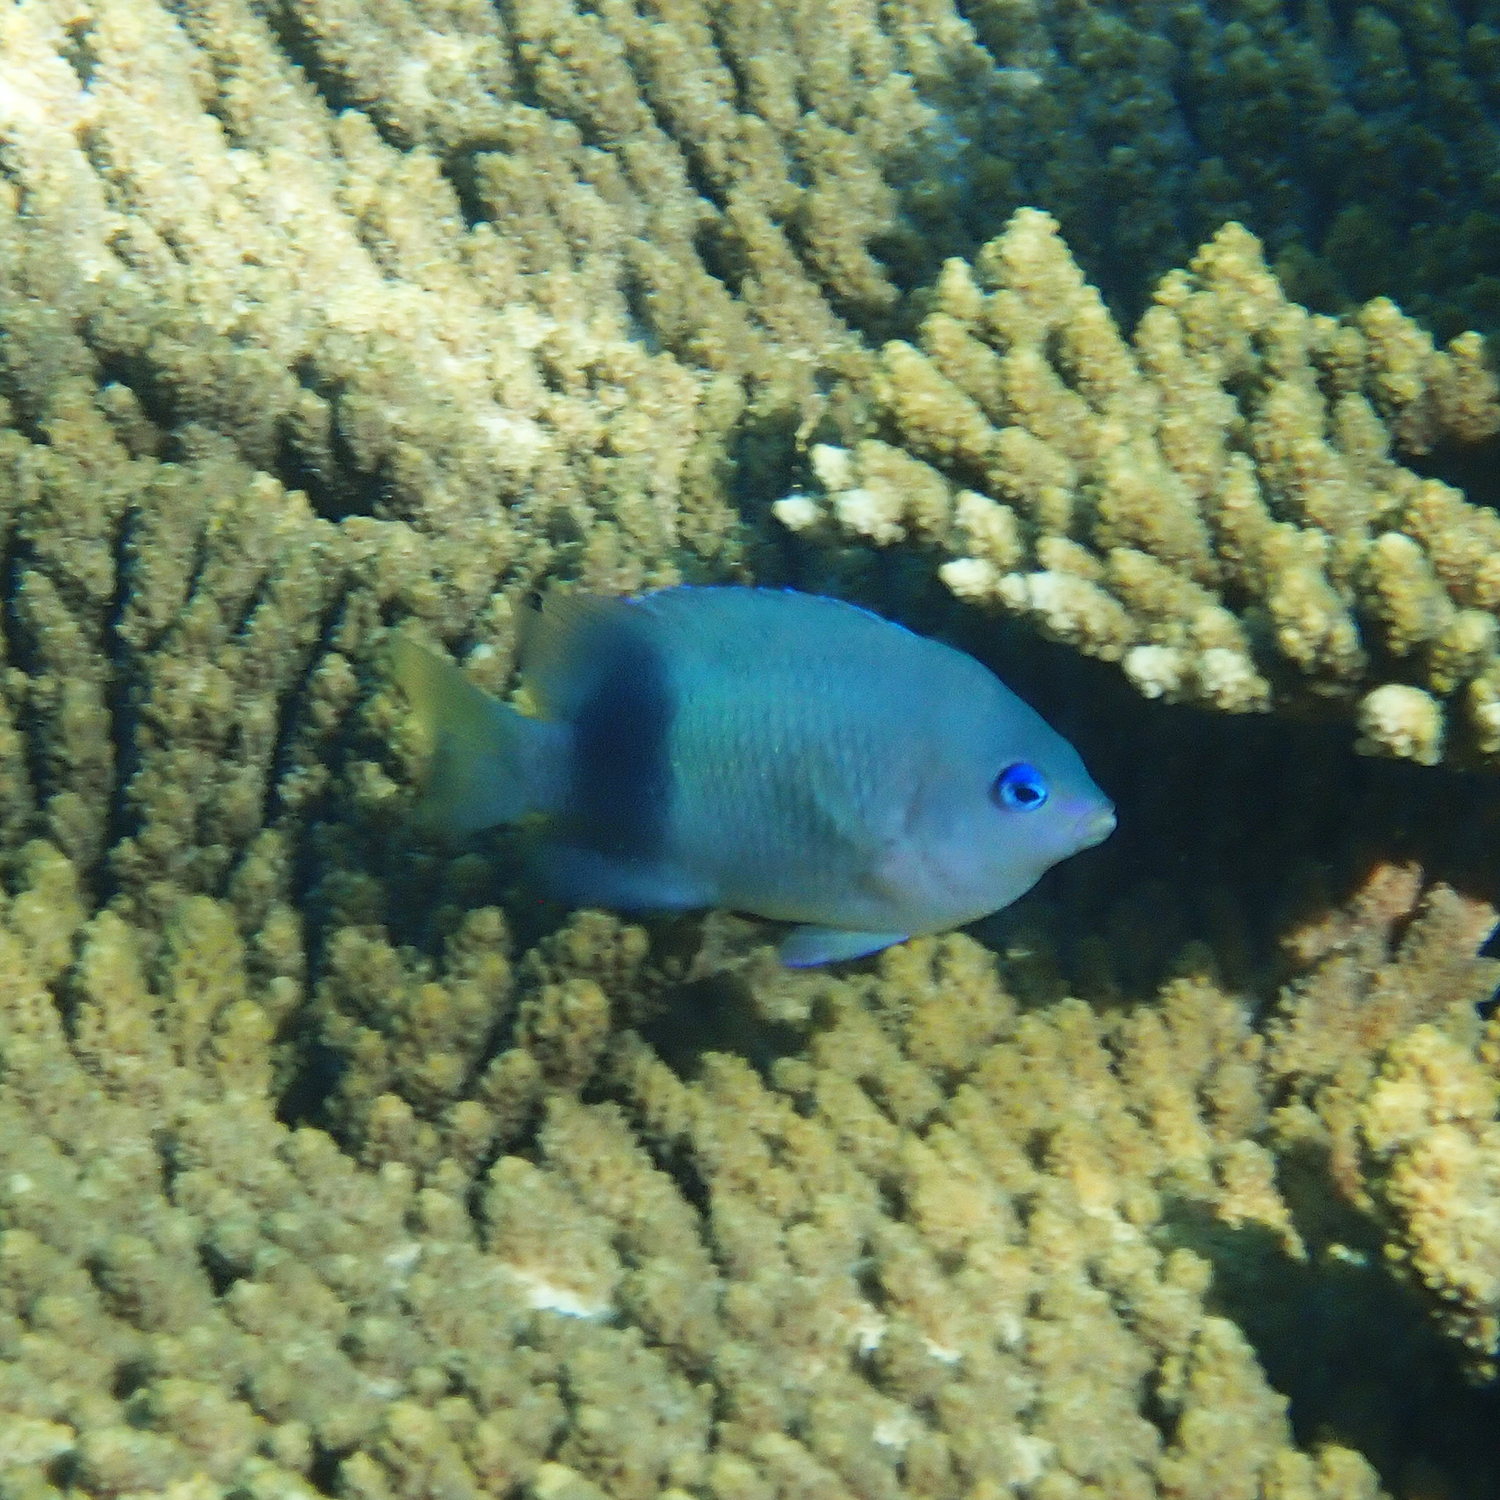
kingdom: Animalia
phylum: Chordata
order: Perciformes
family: Pomacentridae
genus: Plectroglyphidodon
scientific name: Plectroglyphidodon johnstonianus
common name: Johnston damsel
